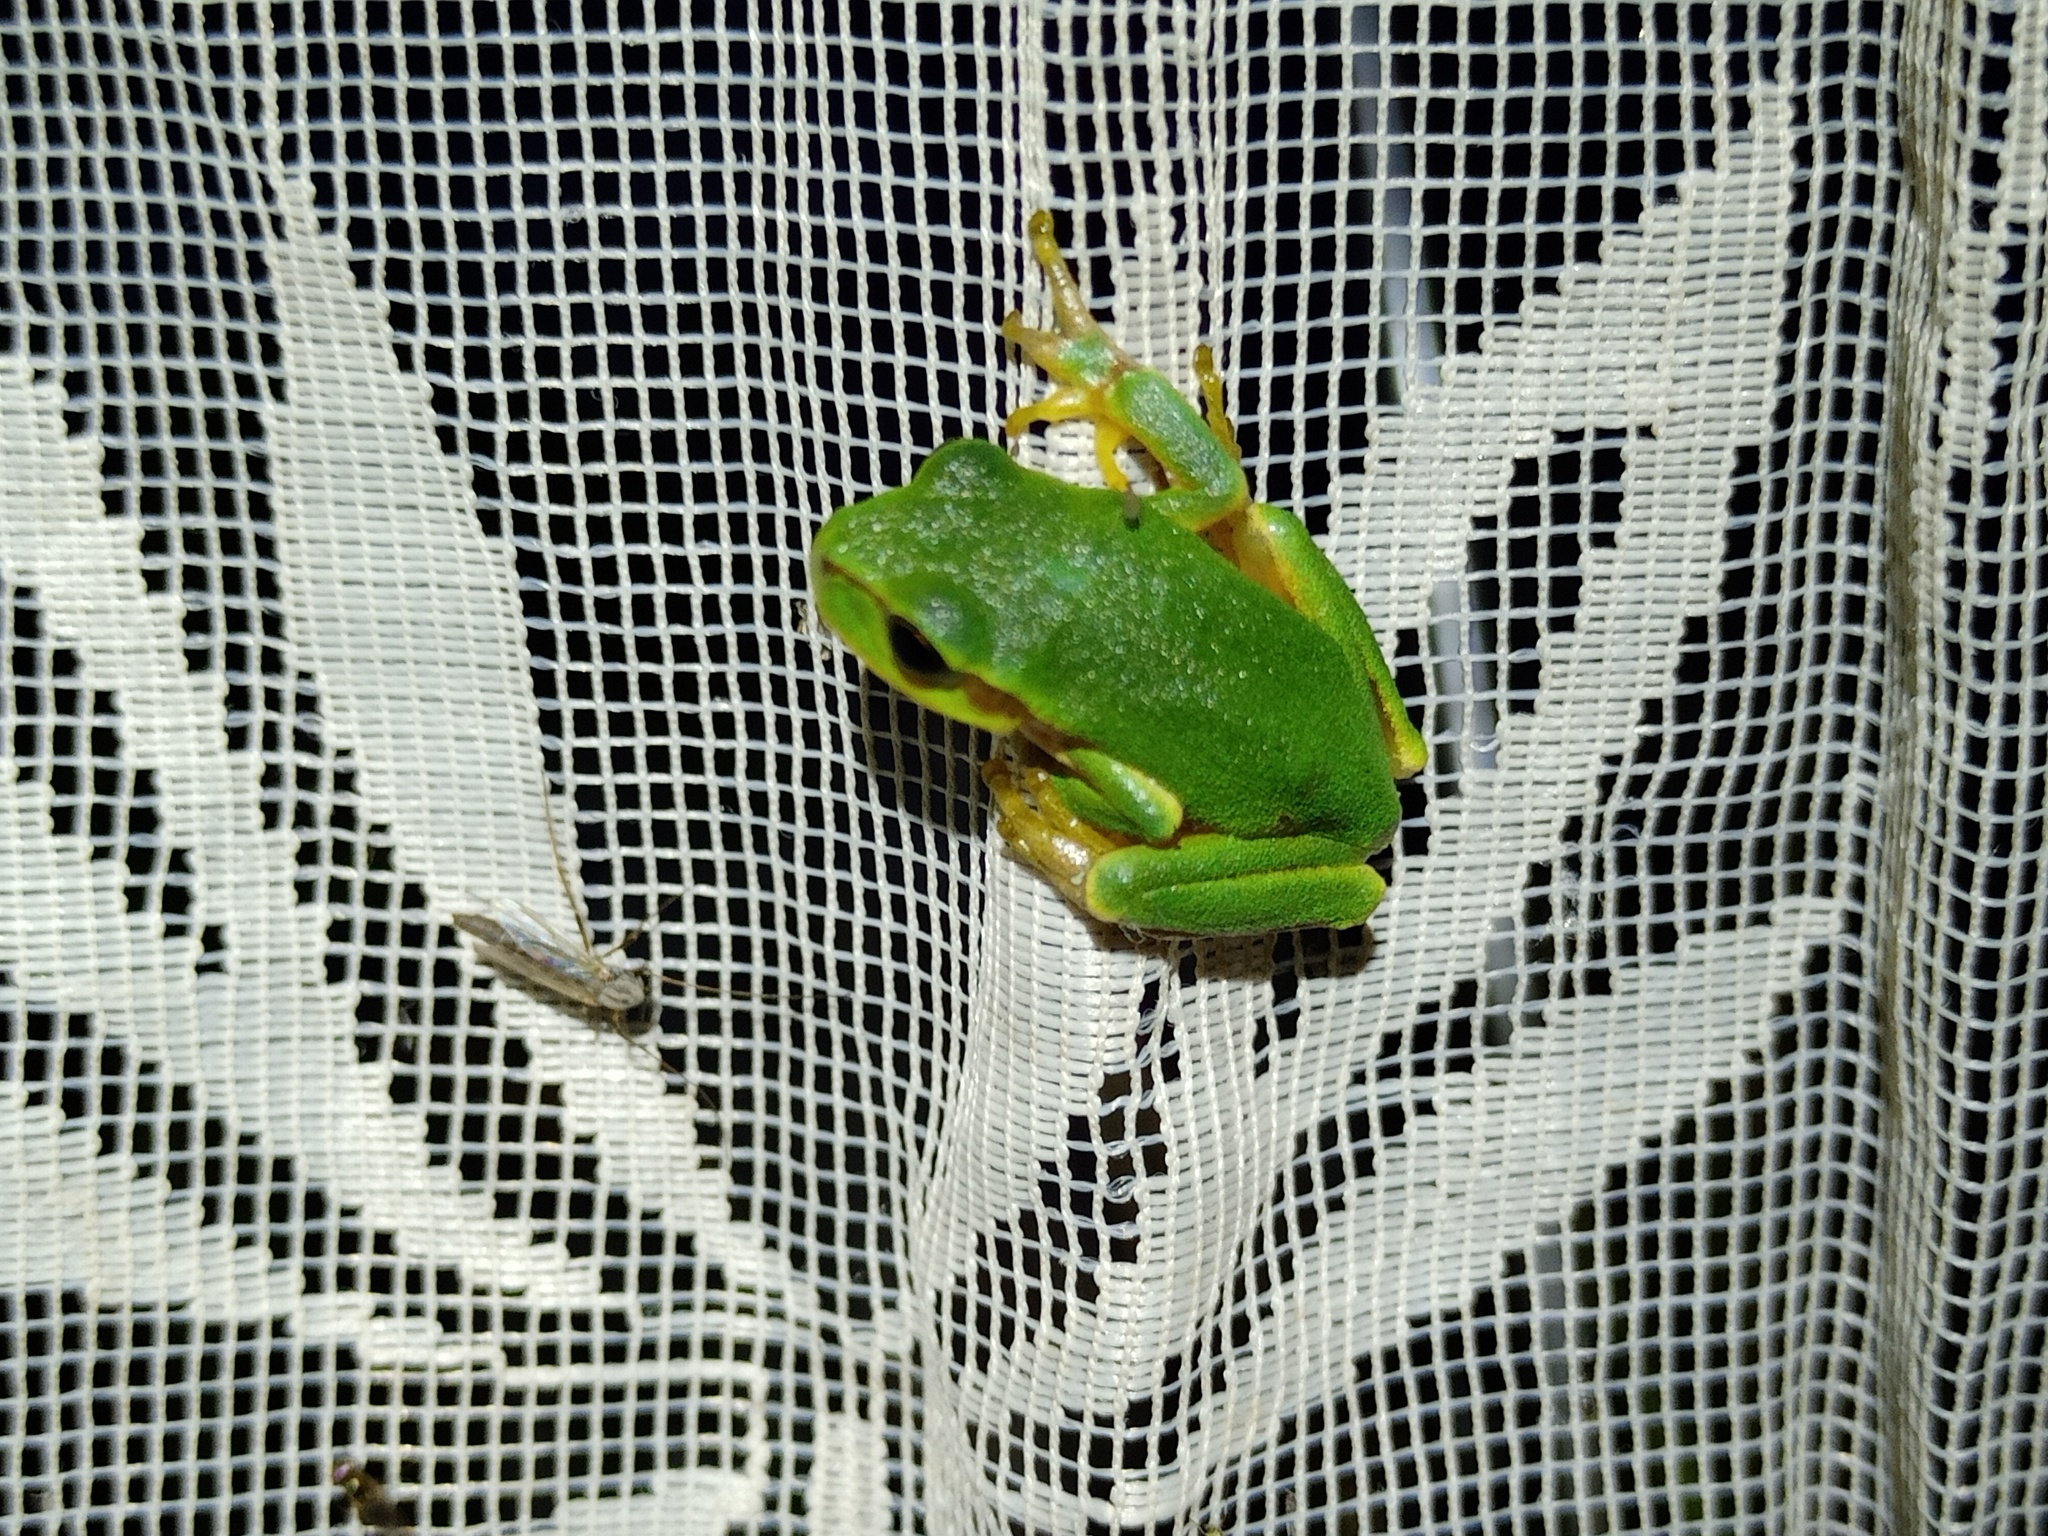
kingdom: Animalia
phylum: Chordata
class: Amphibia
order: Anura
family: Hylidae
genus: Hyla
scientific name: Hyla arborea
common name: Common tree frog
